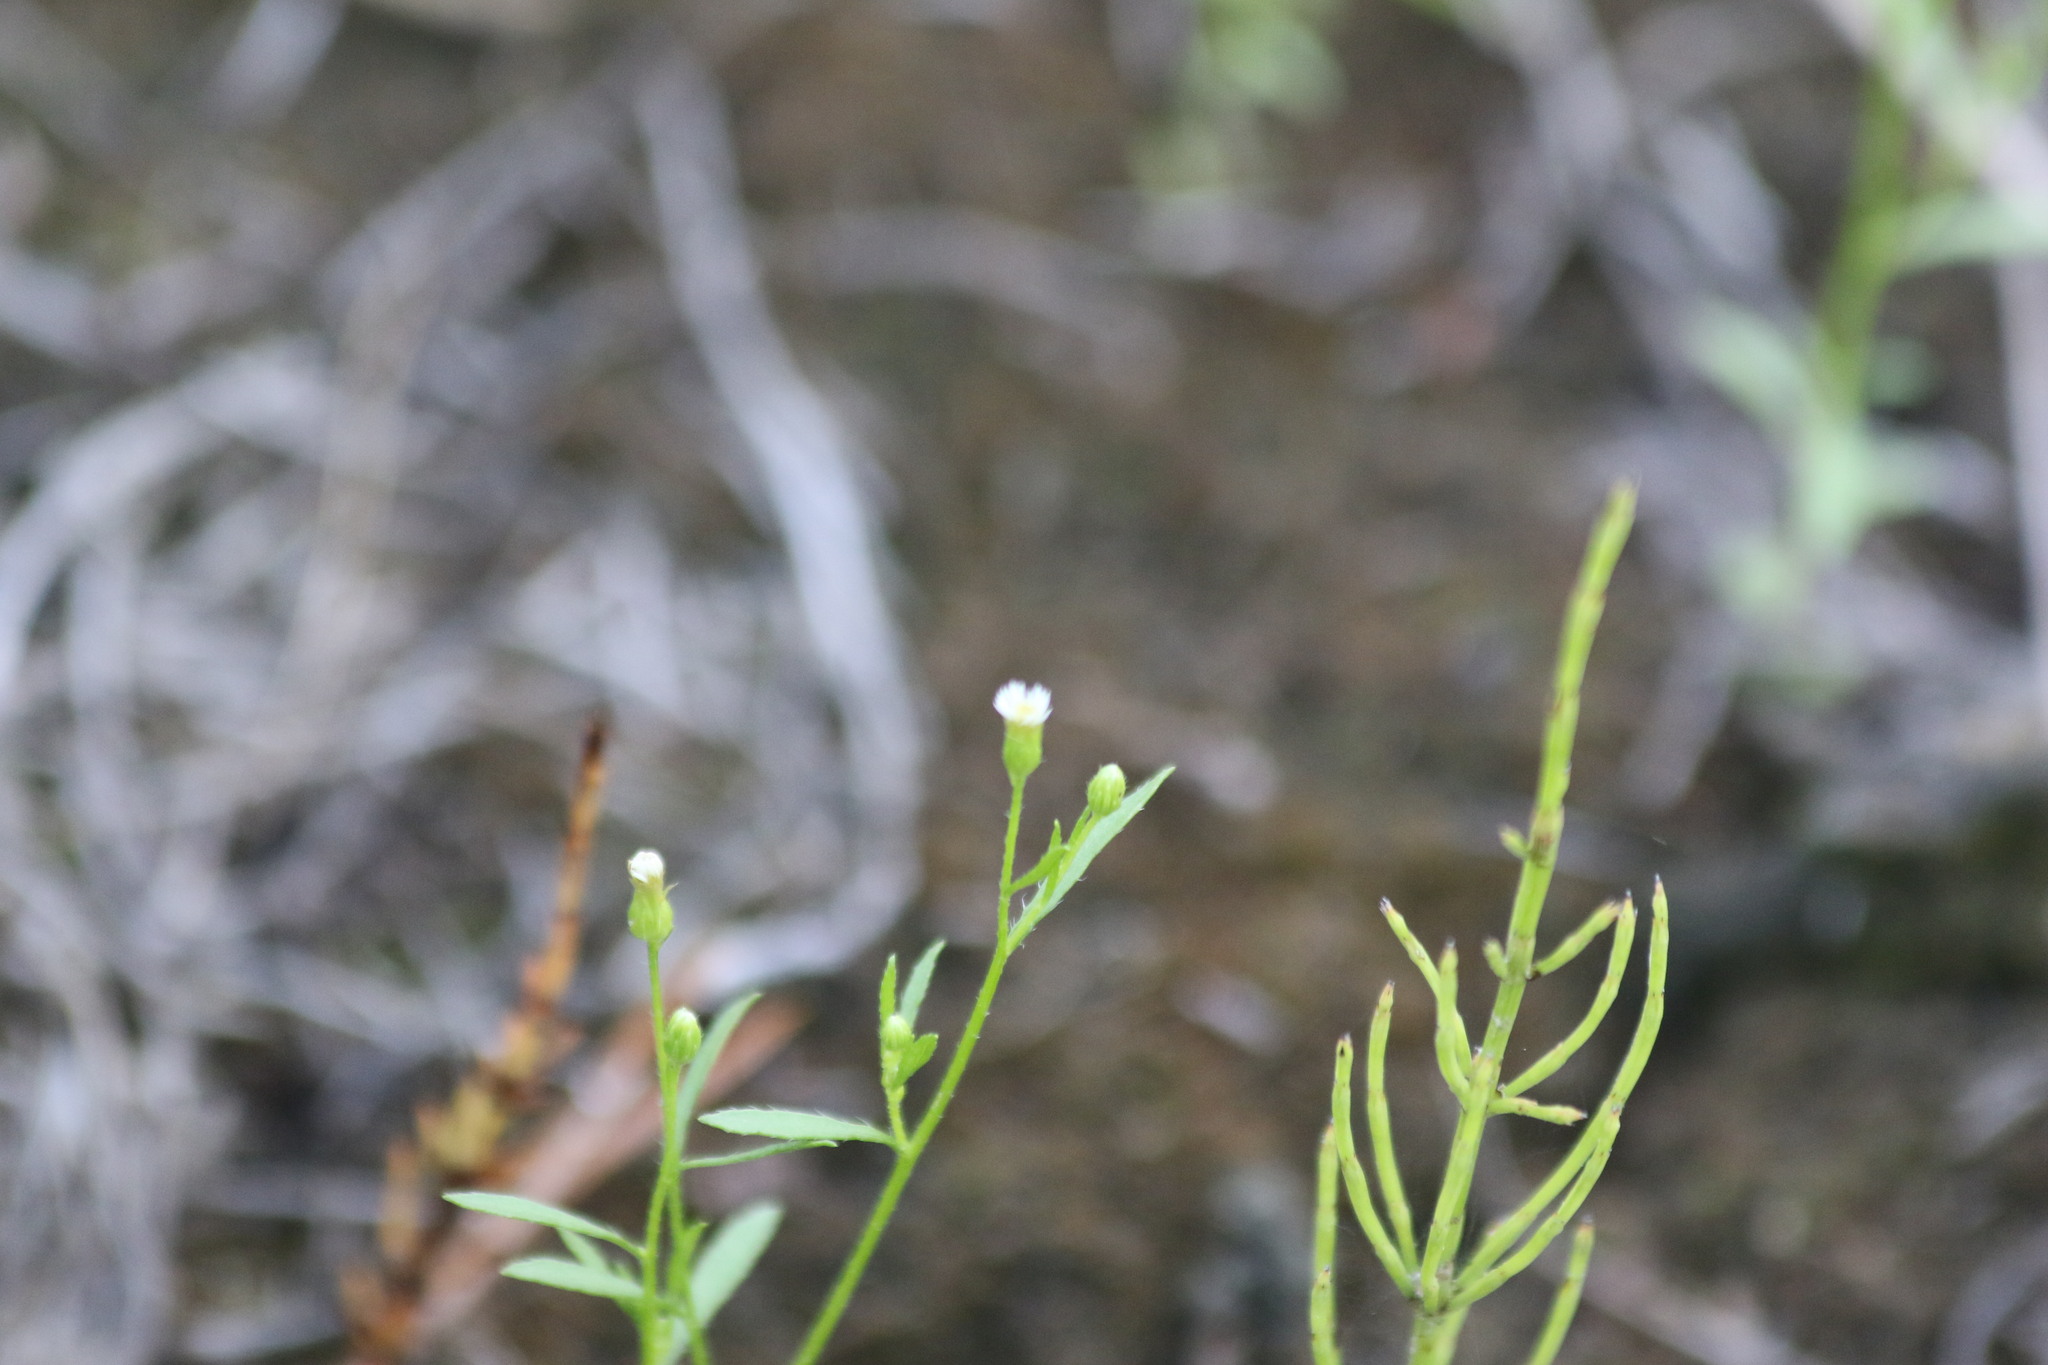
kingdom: Plantae
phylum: Tracheophyta
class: Magnoliopsida
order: Asterales
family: Asteraceae
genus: Erigeron
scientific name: Erigeron canadensis
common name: Canadian fleabane
